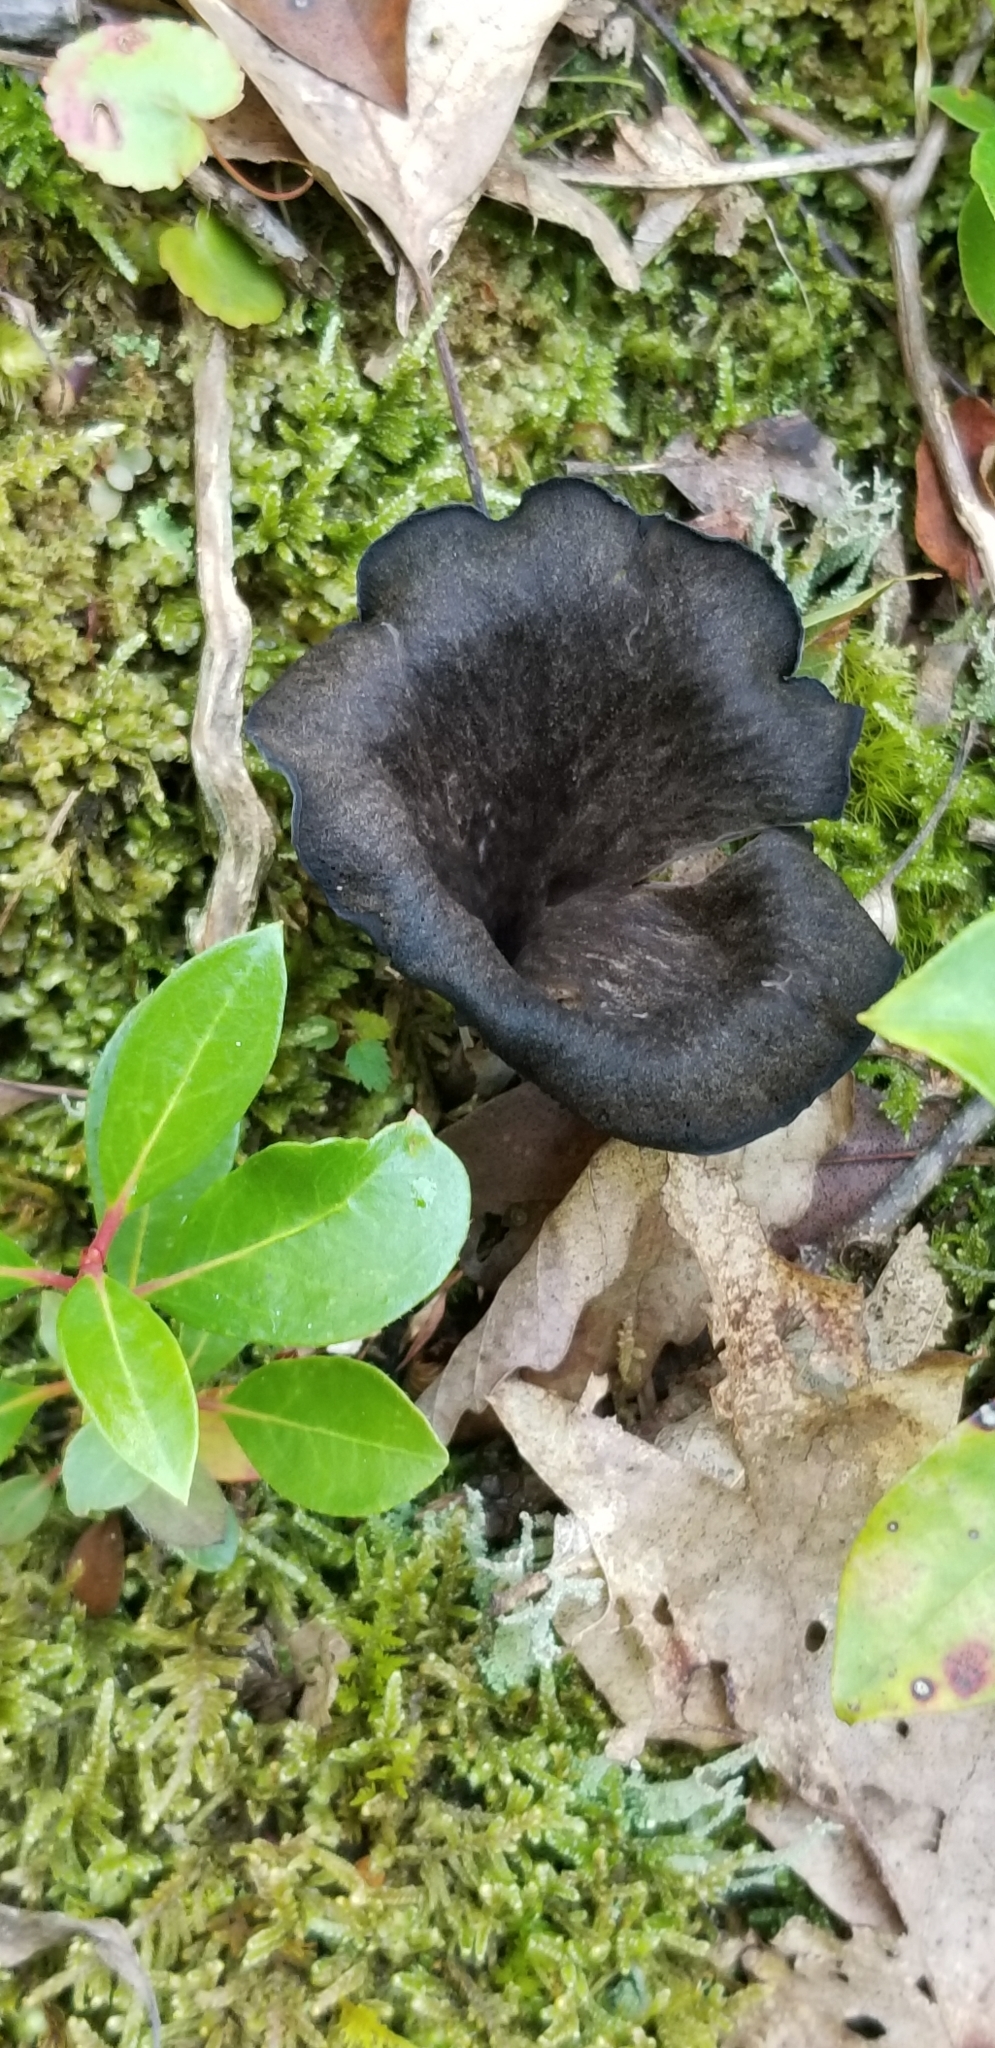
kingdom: Fungi
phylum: Basidiomycota
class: Agaricomycetes
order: Cantharellales
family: Hydnaceae
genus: Craterellus
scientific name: Craterellus cornucopioides
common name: Horn of plenty
